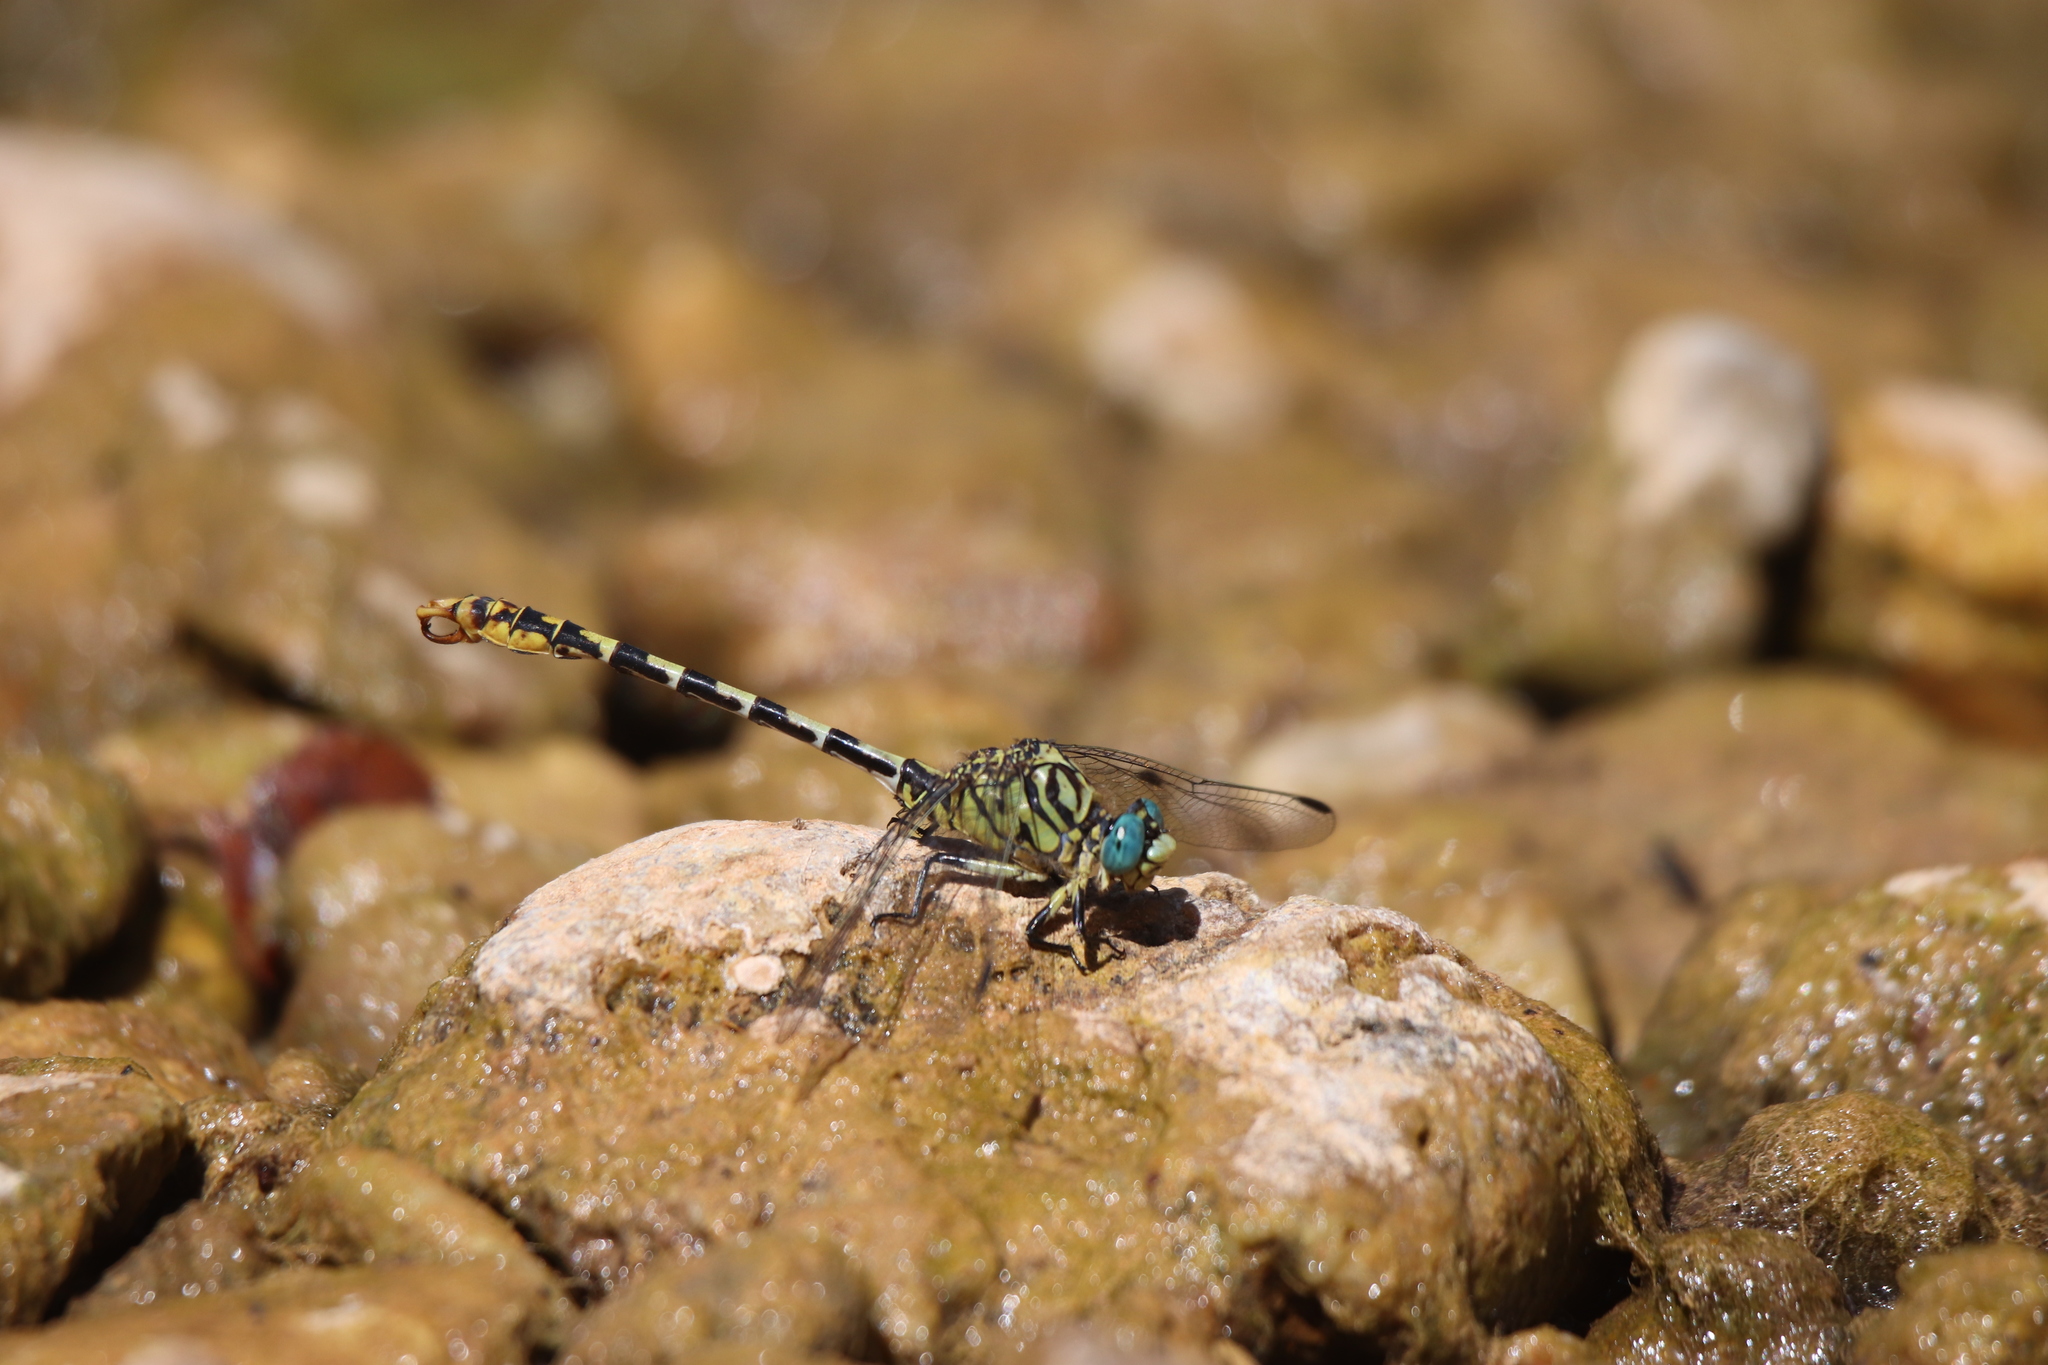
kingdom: Animalia
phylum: Arthropoda
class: Insecta
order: Odonata
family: Gomphidae
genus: Onychogomphus
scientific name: Onychogomphus forcipatus
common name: Small pincertail
